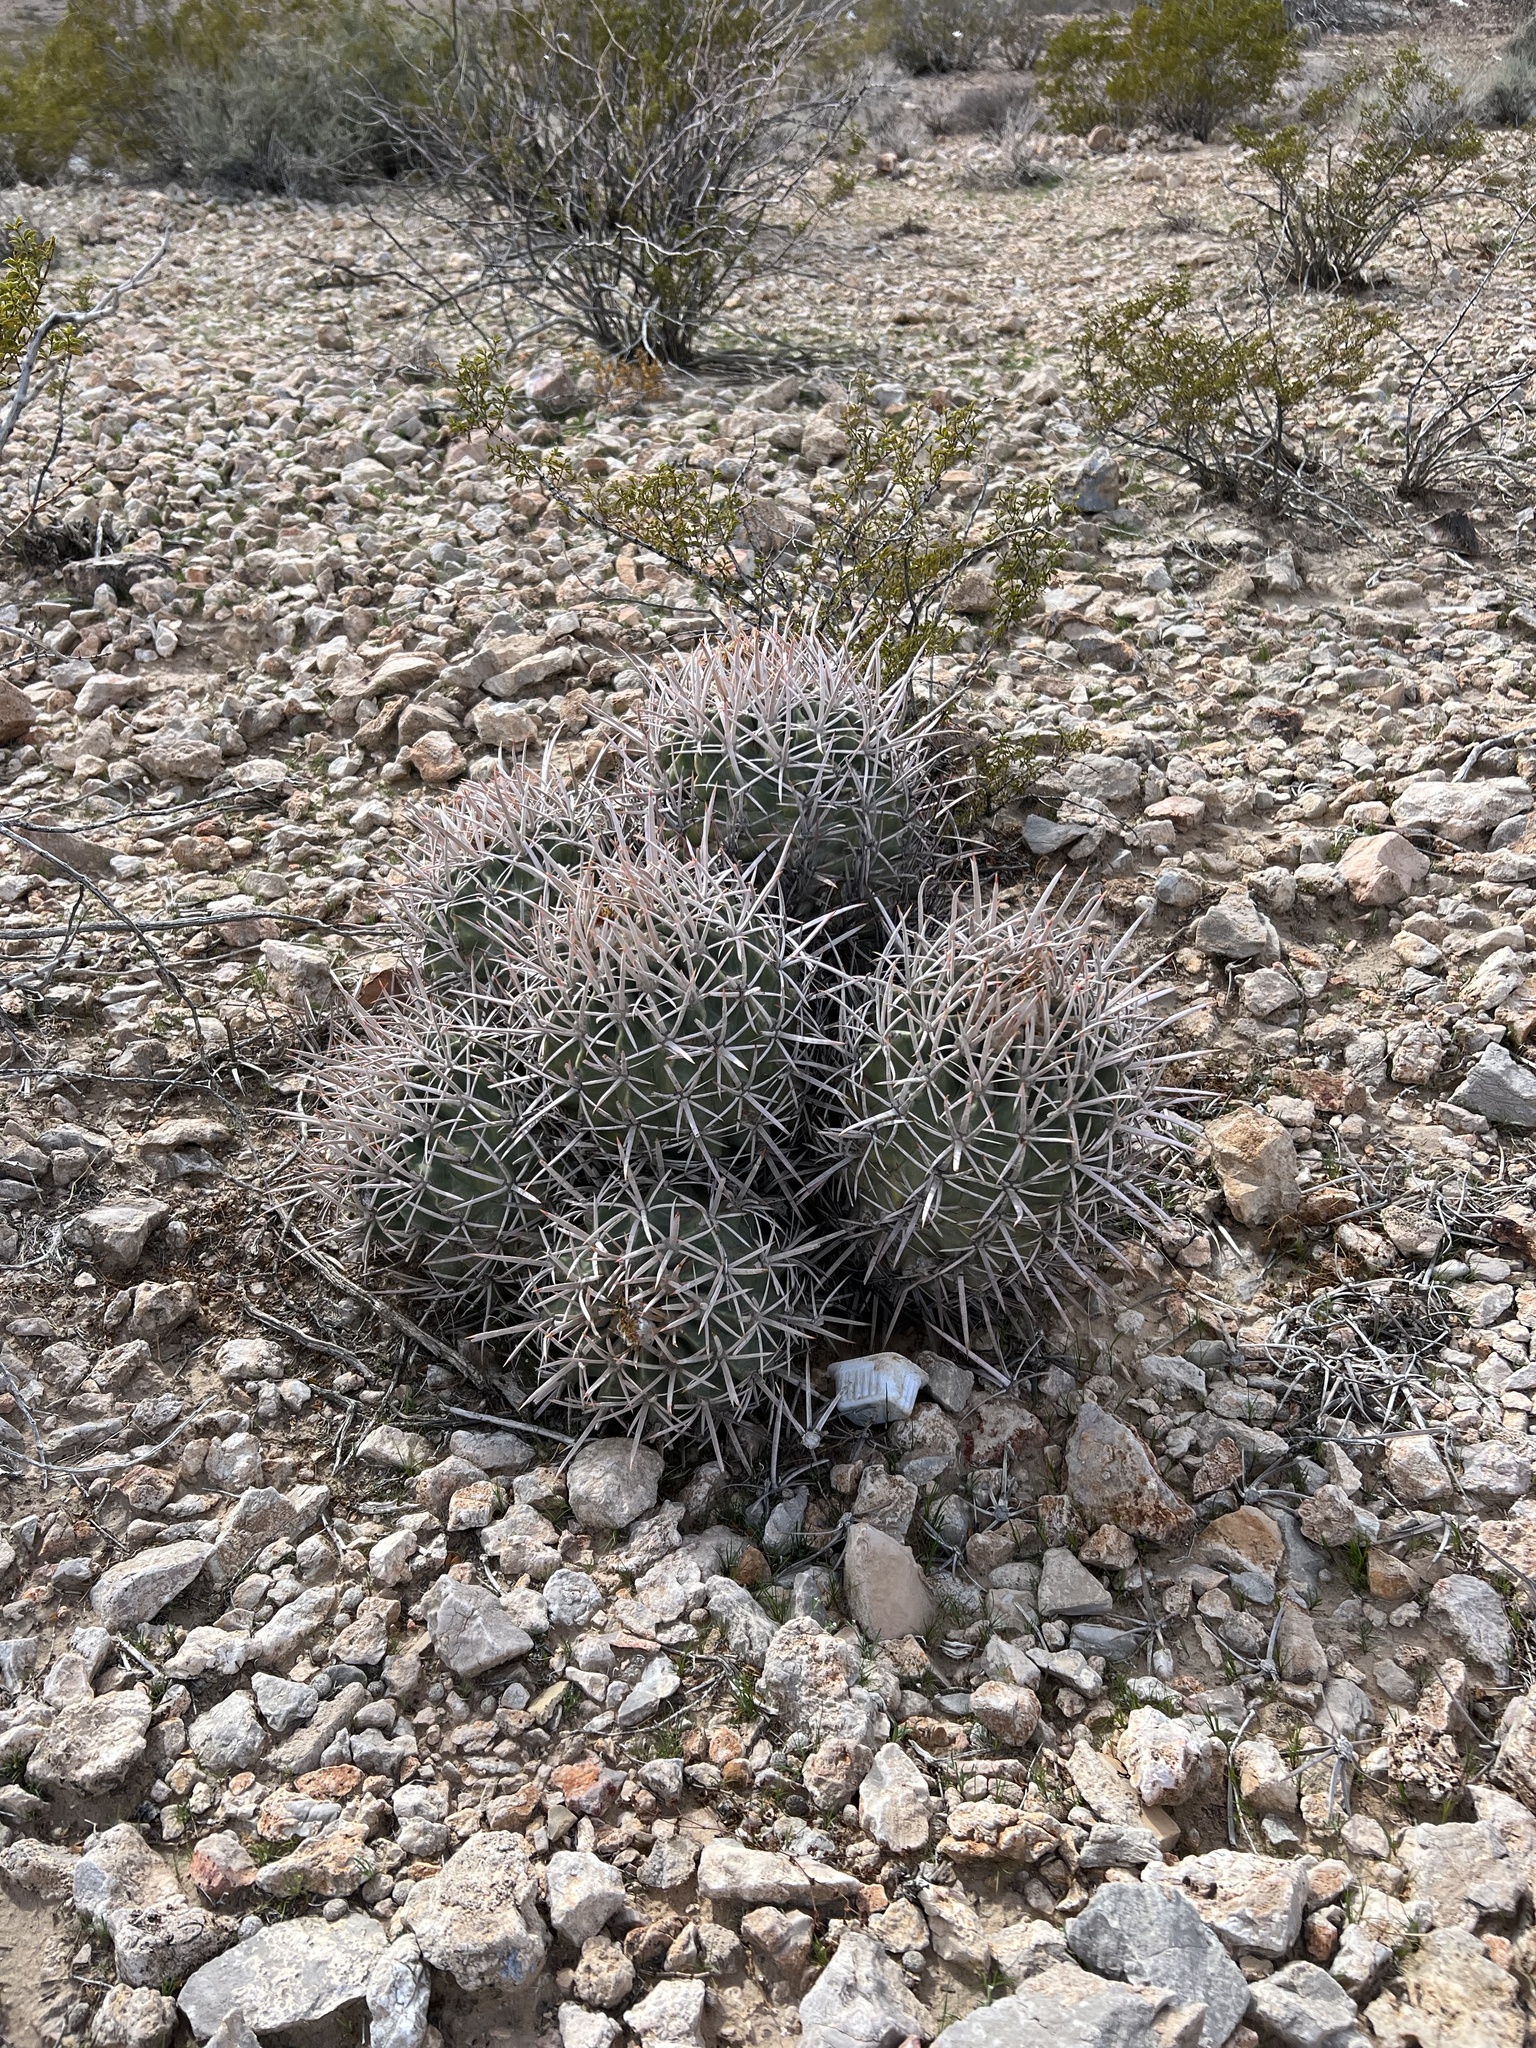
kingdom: Plantae
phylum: Tracheophyta
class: Magnoliopsida
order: Caryophyllales
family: Cactaceae
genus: Echinocactus
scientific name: Echinocactus polycephalus
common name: Cottontop cactus
